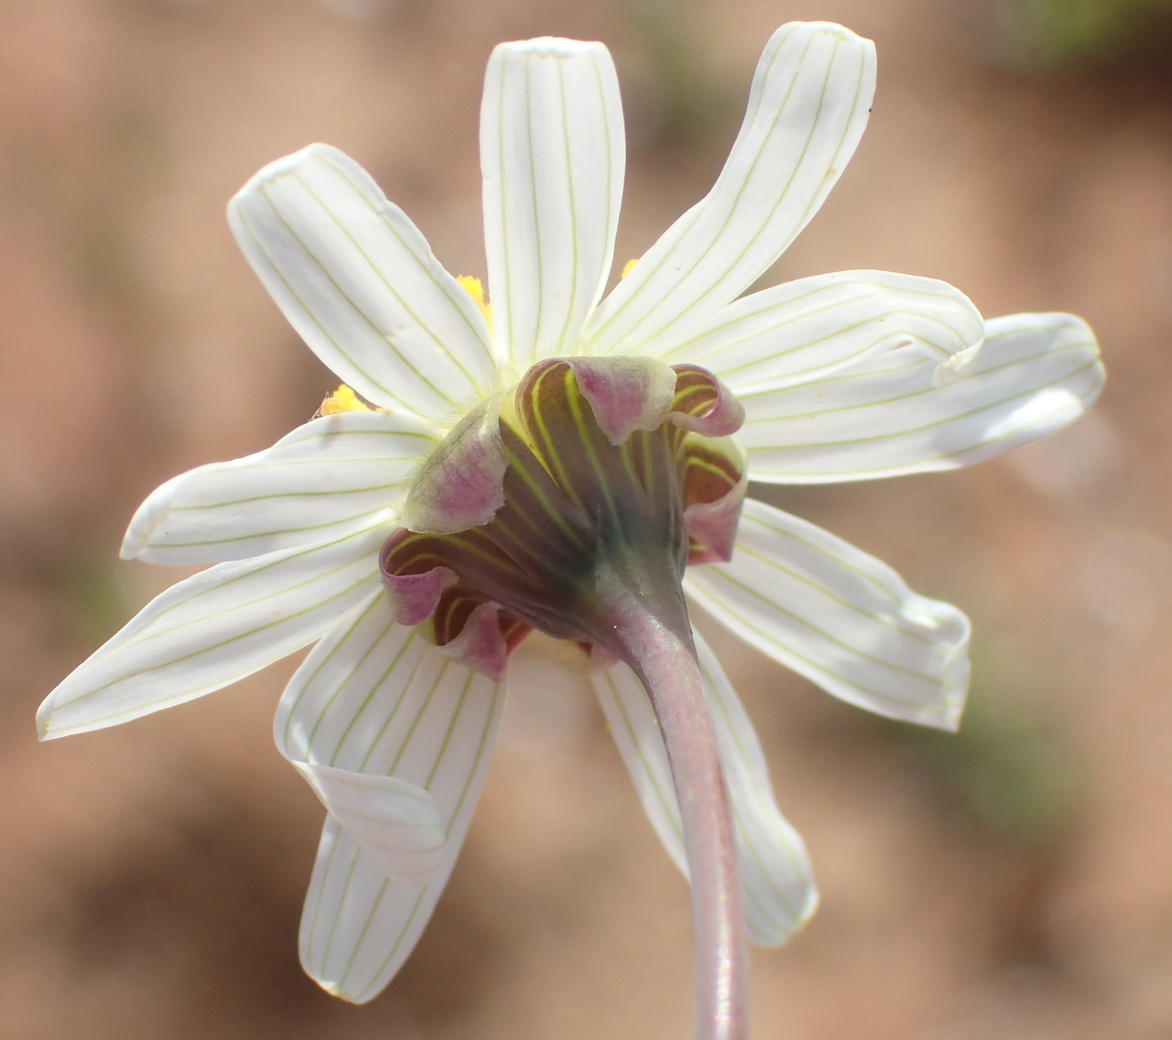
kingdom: Plantae
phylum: Tracheophyta
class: Magnoliopsida
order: Asterales
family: Asteraceae
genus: Crassothonna
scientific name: Crassothonna alba
